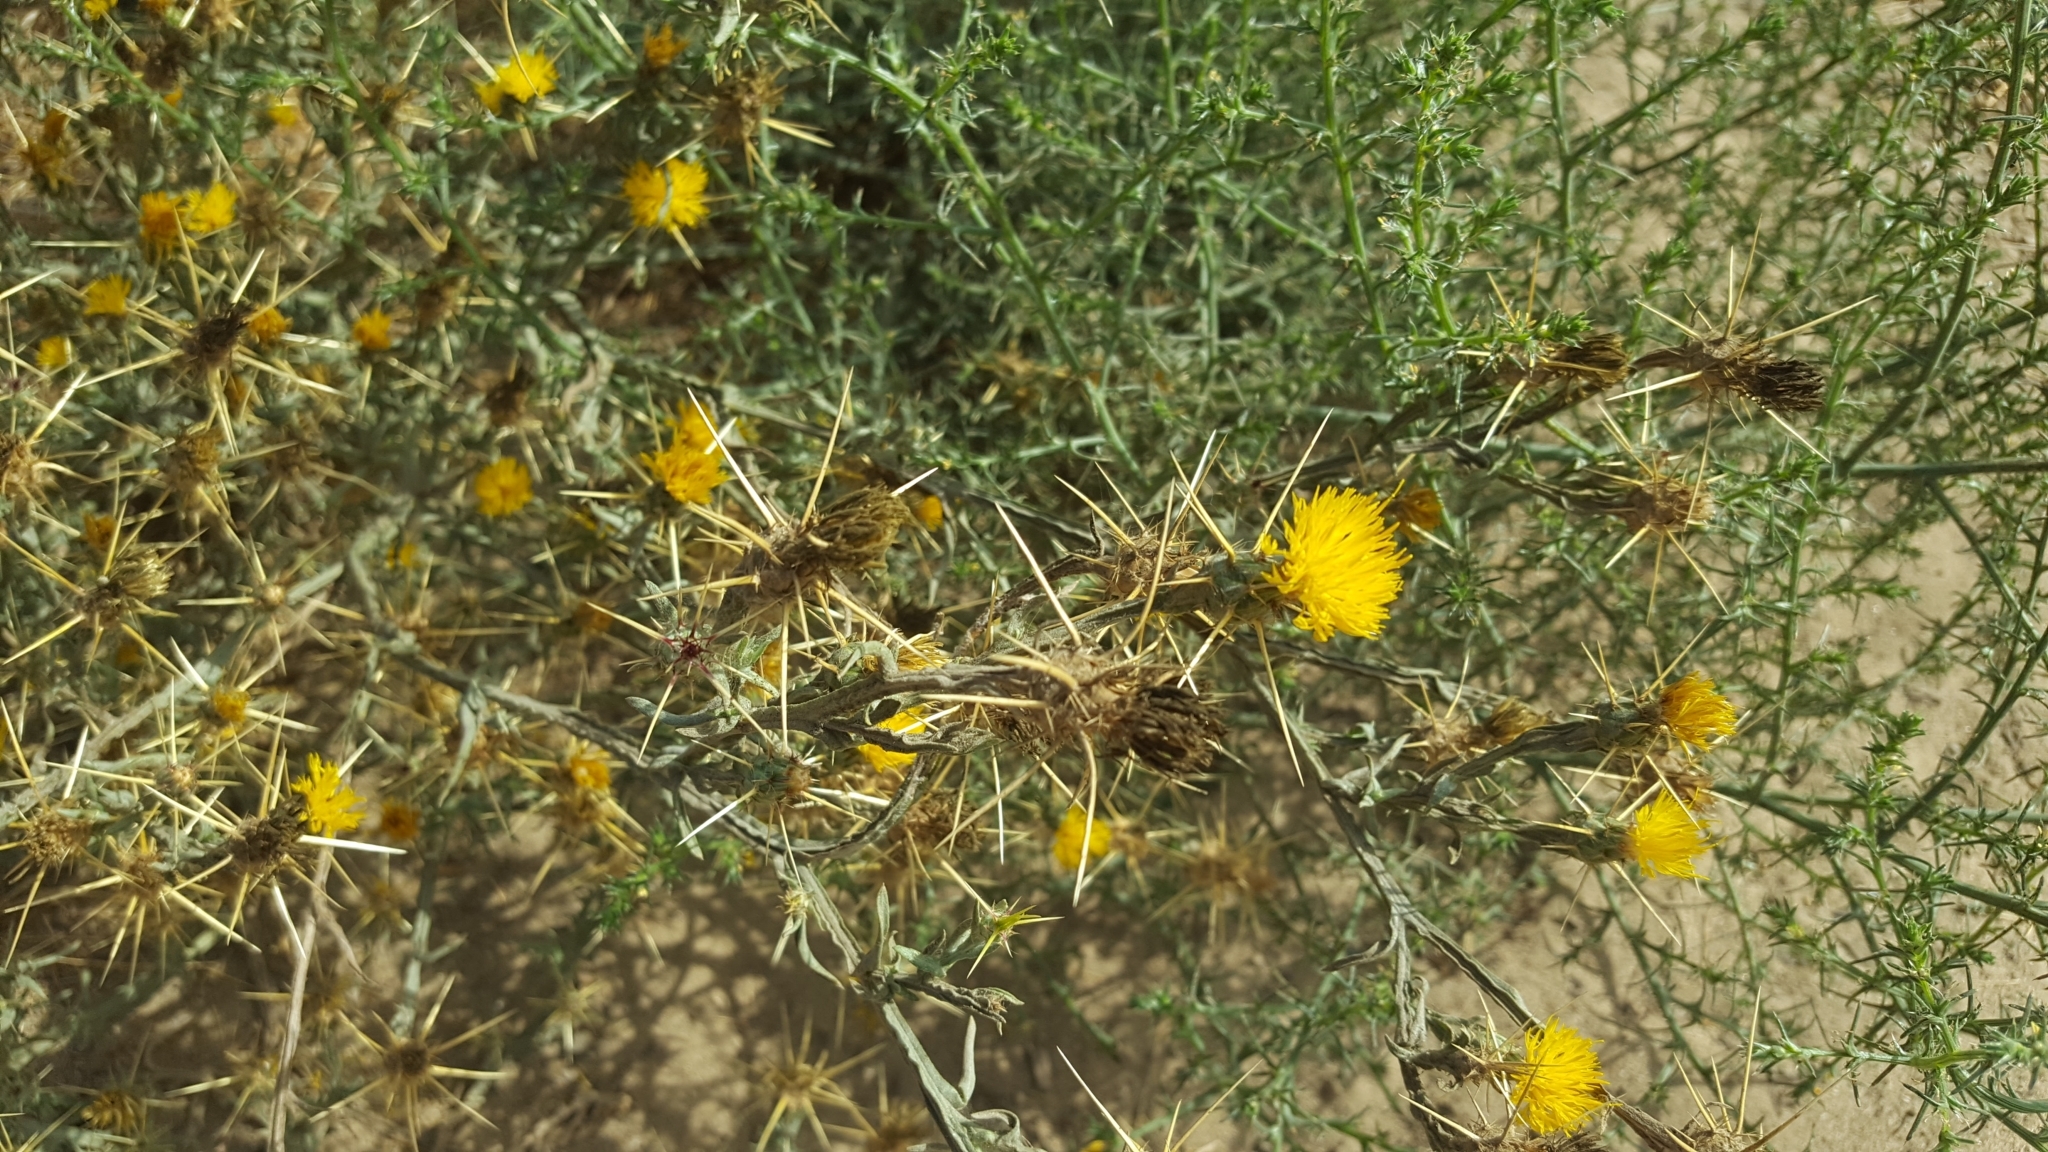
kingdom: Plantae
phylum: Tracheophyta
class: Magnoliopsida
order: Asterales
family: Asteraceae
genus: Centaurea
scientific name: Centaurea solstitialis
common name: Yellow star-thistle
